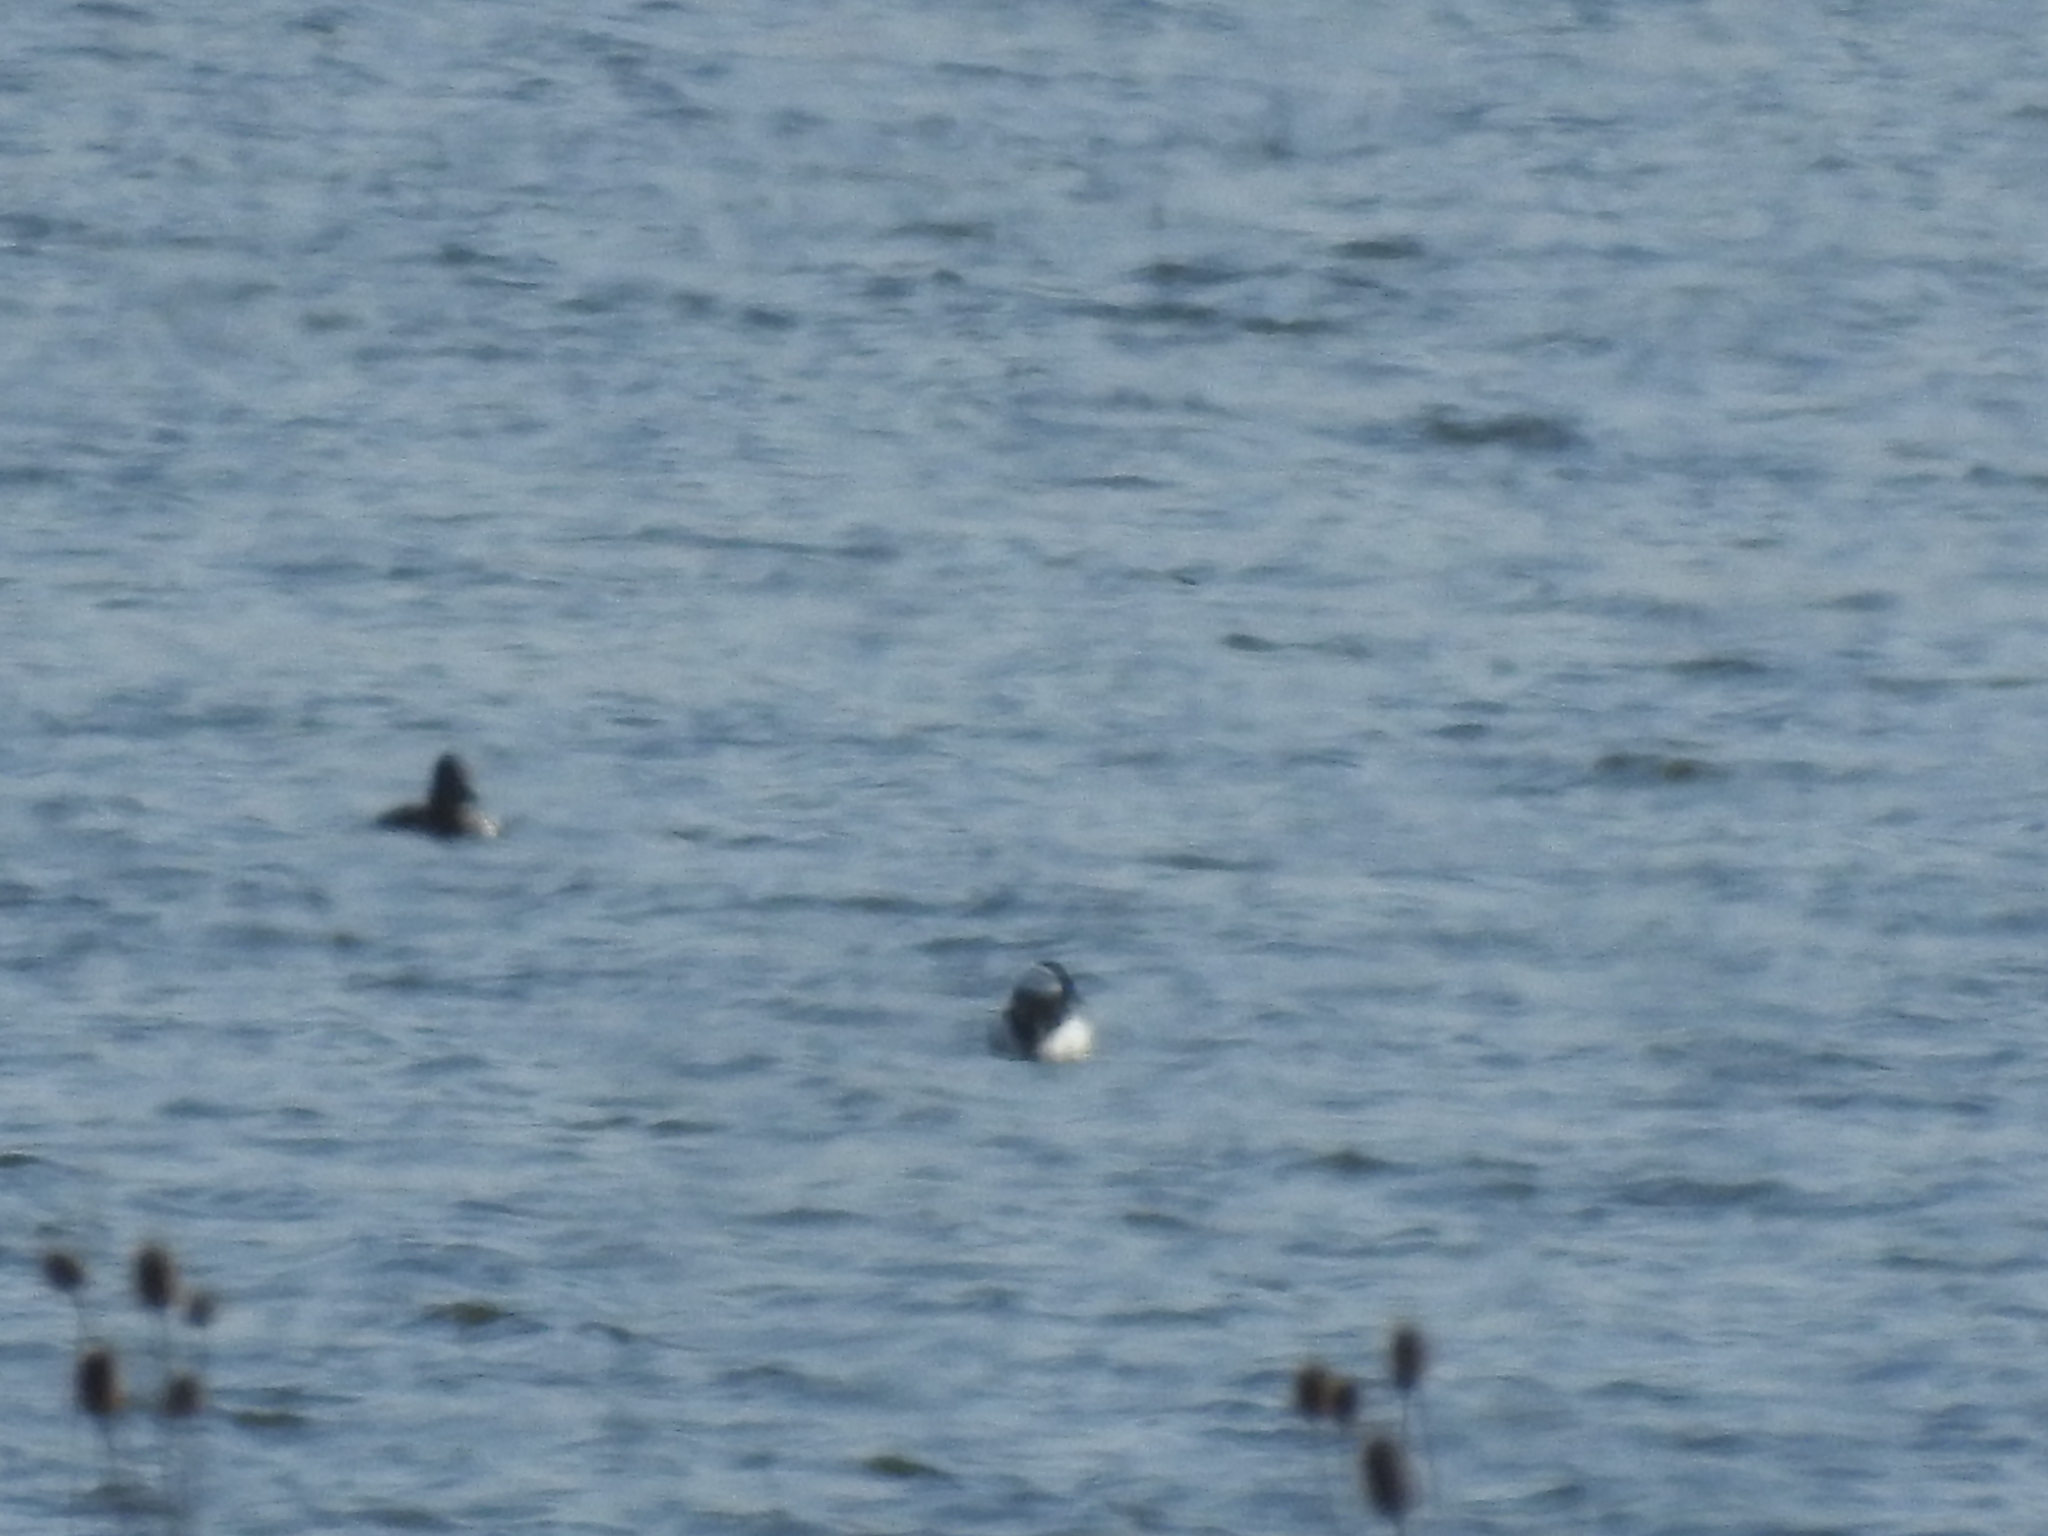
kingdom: Animalia
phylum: Chordata
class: Aves
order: Anseriformes
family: Anatidae
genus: Bucephala
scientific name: Bucephala albeola
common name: Bufflehead
